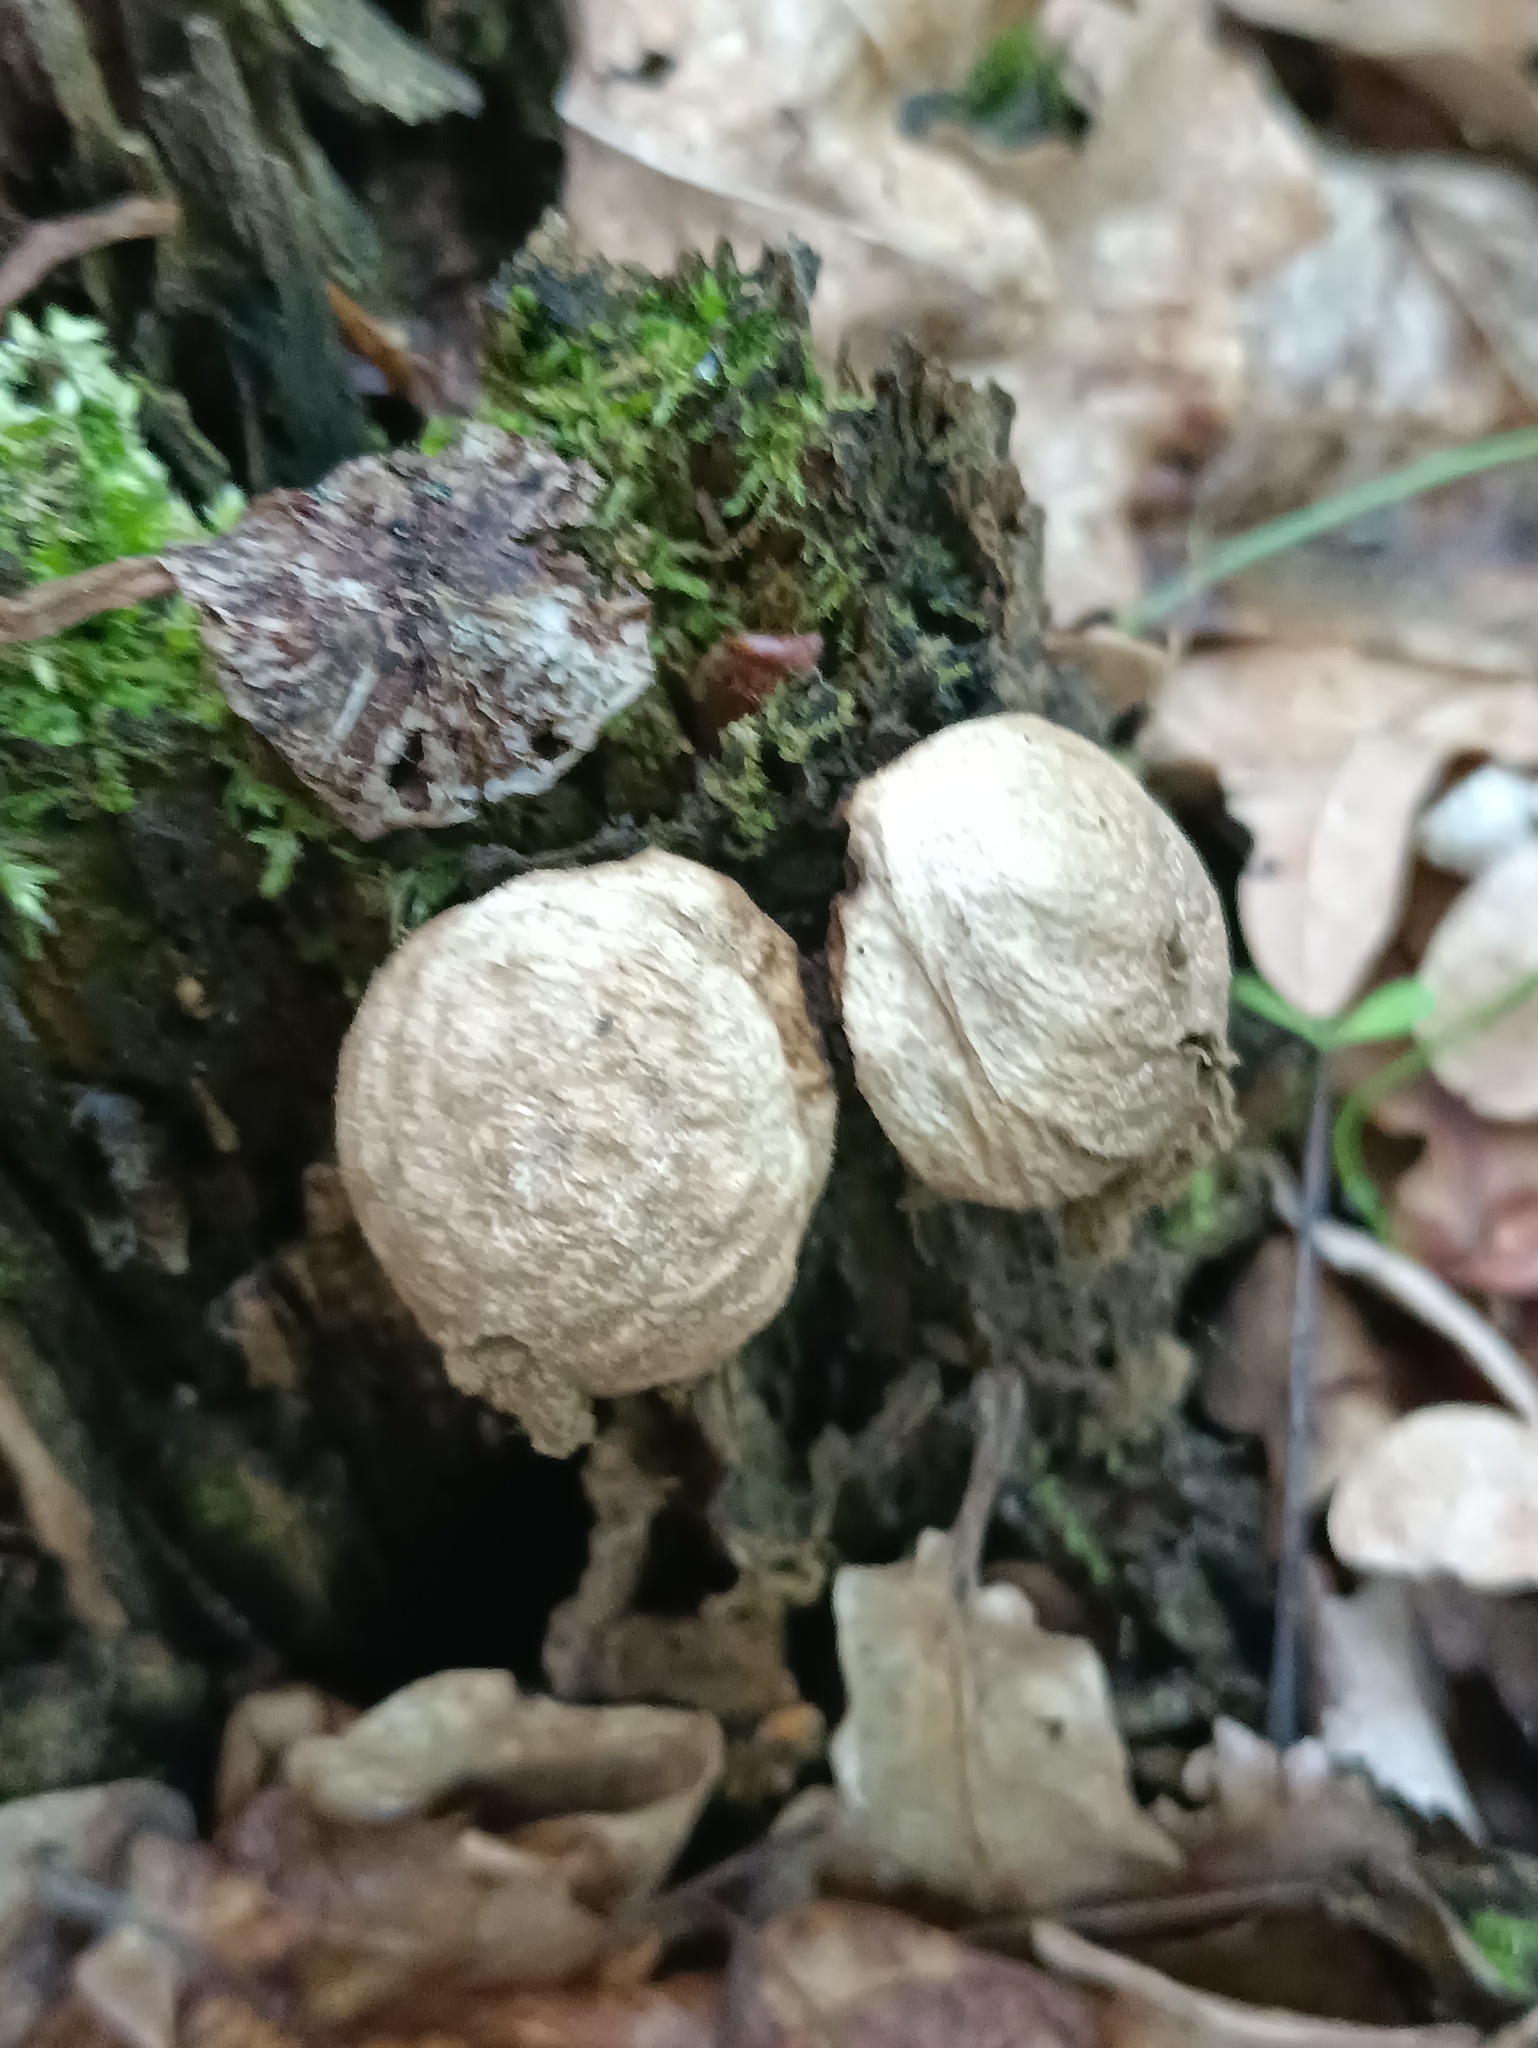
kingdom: Fungi
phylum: Basidiomycota
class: Agaricomycetes
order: Agaricales
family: Lycoperdaceae
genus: Apioperdon
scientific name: Apioperdon pyriforme
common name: Pear-shaped puffball
